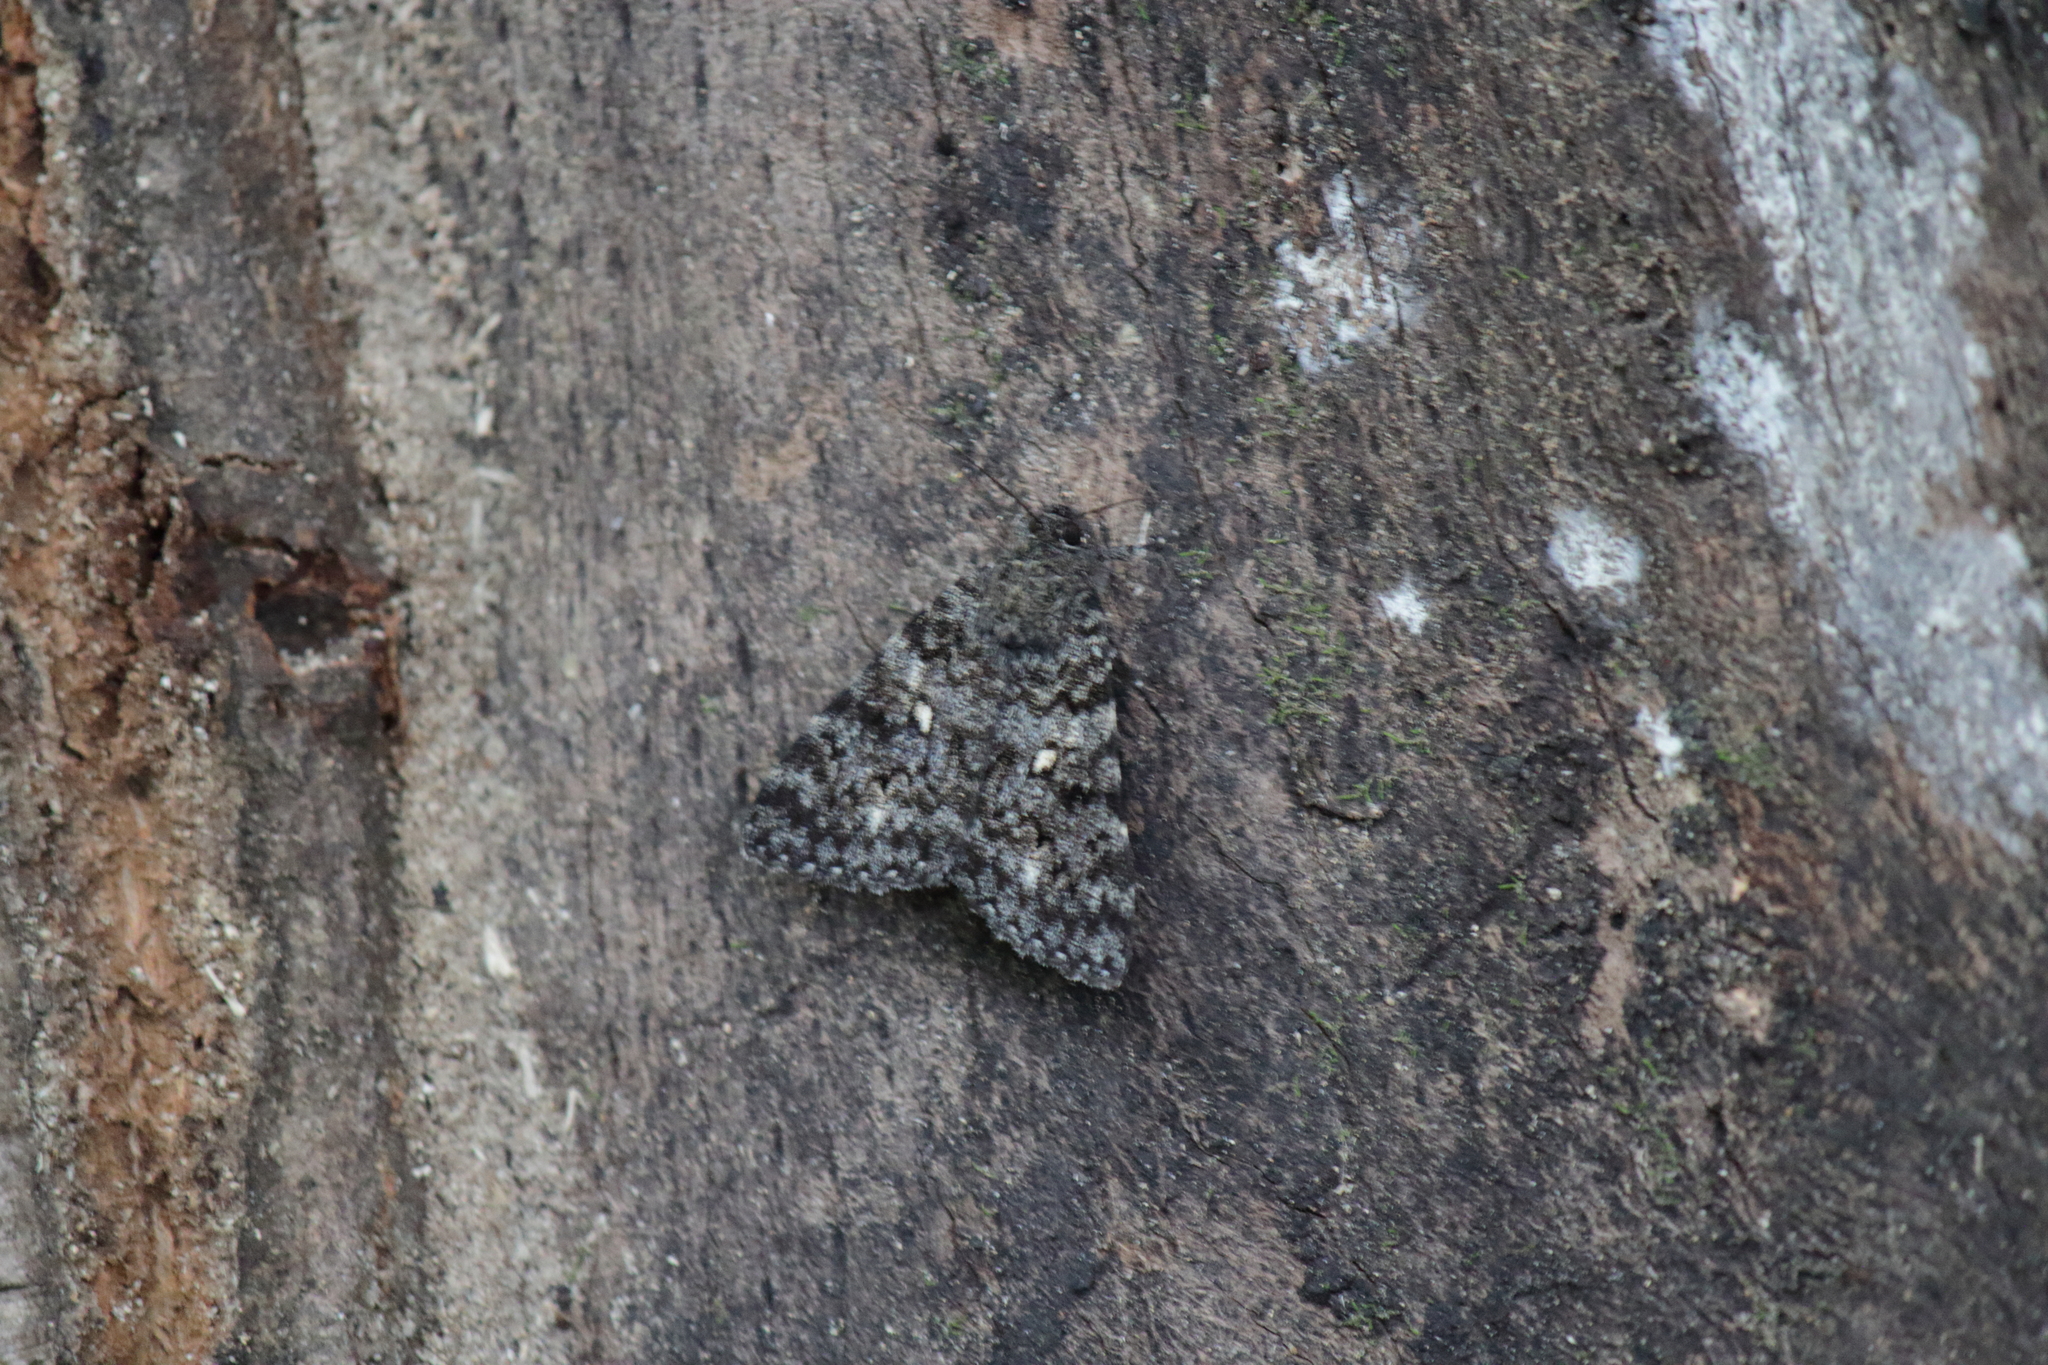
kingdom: Animalia
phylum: Arthropoda
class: Insecta
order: Lepidoptera
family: Erebidae
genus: Catocala
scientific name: Catocala actaea
